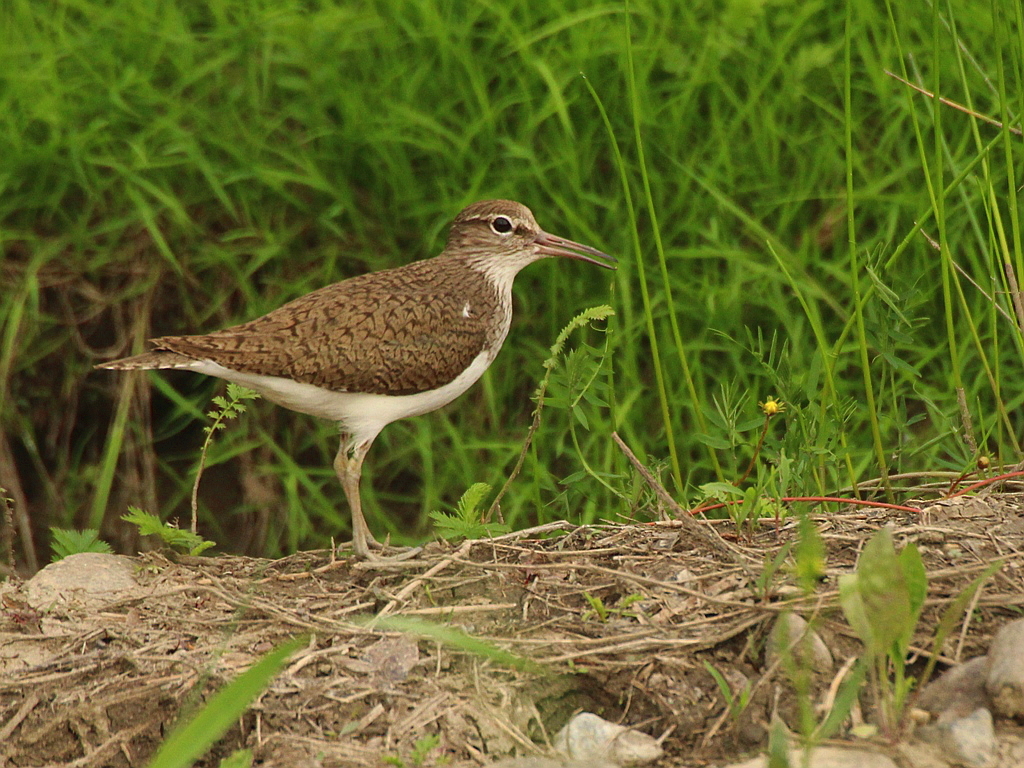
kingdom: Animalia
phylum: Chordata
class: Aves
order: Charadriiformes
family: Scolopacidae
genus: Actitis
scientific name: Actitis hypoleucos
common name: Common sandpiper
